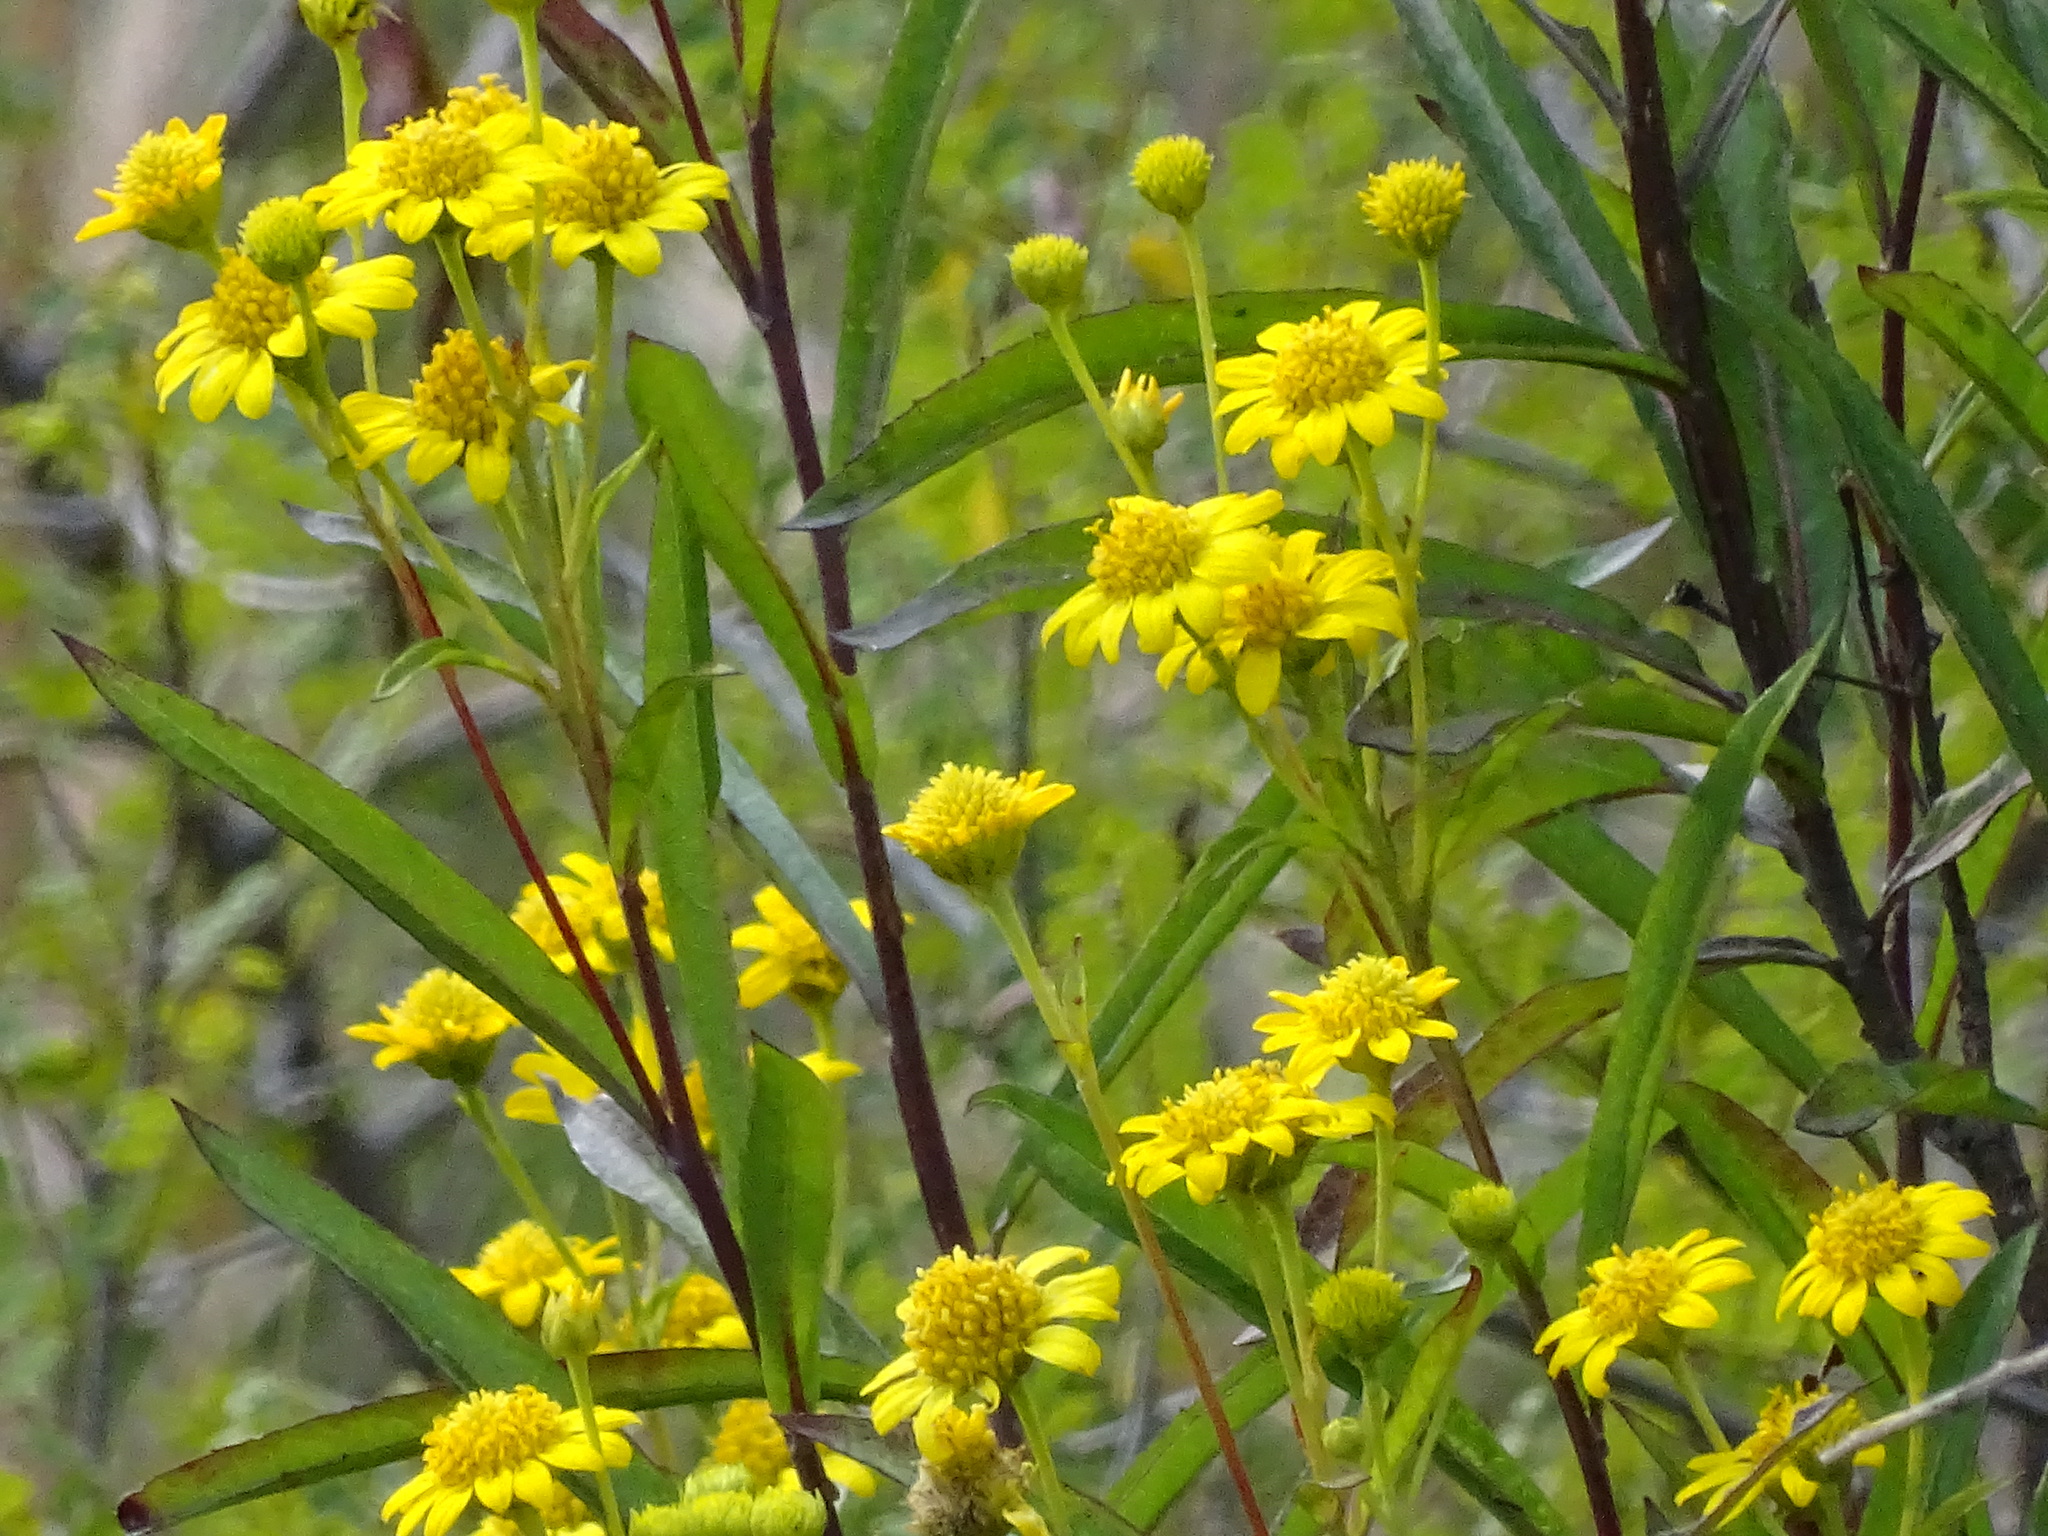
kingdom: Plantae
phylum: Tracheophyta
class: Magnoliopsida
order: Asterales
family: Asteraceae
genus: Verbesina
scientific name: Verbesina virgata
